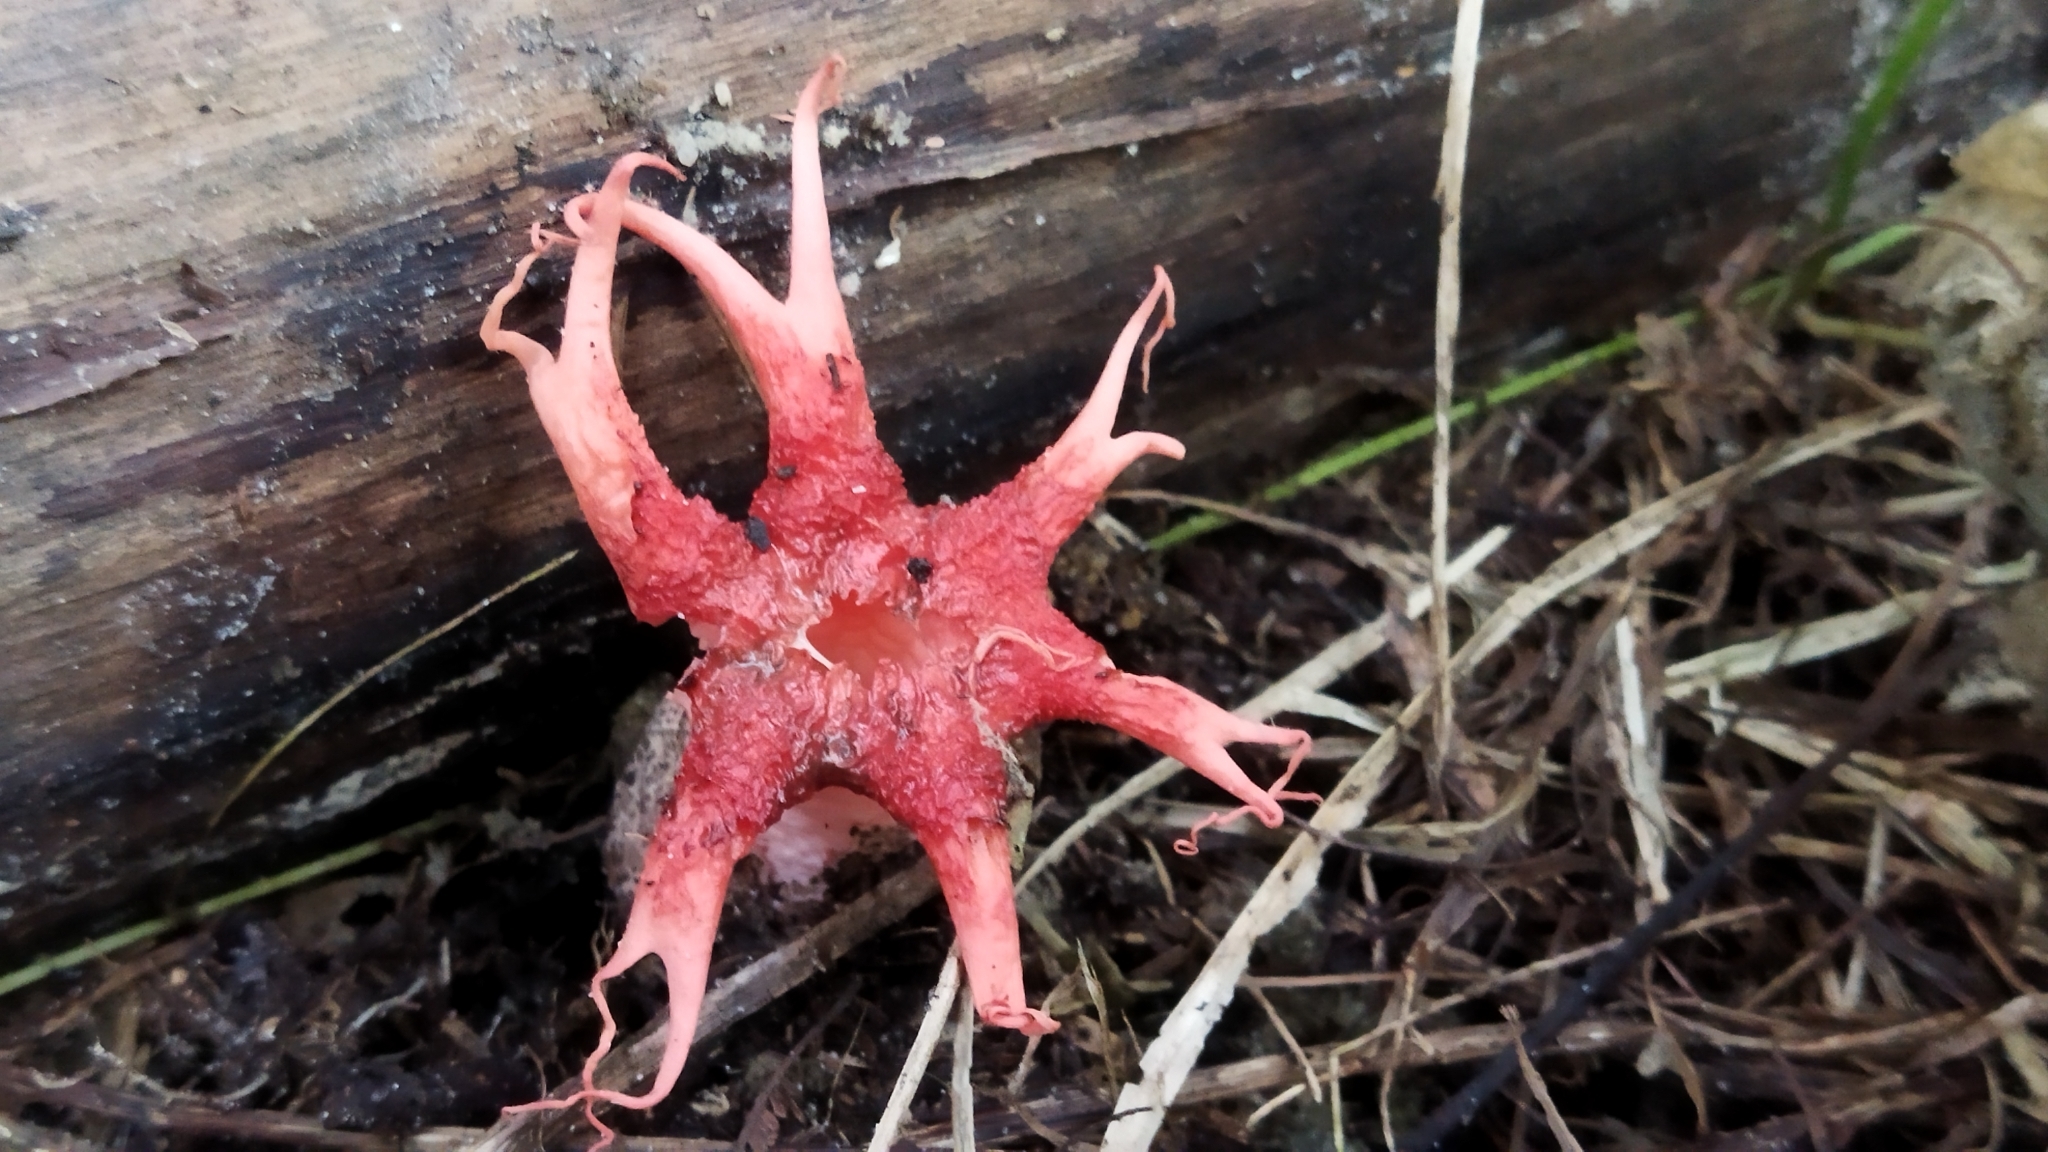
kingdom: Fungi
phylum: Basidiomycota
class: Agaricomycetes
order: Phallales
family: Phallaceae
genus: Aseroe
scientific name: Aseroe rubra
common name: Starfish fungus
